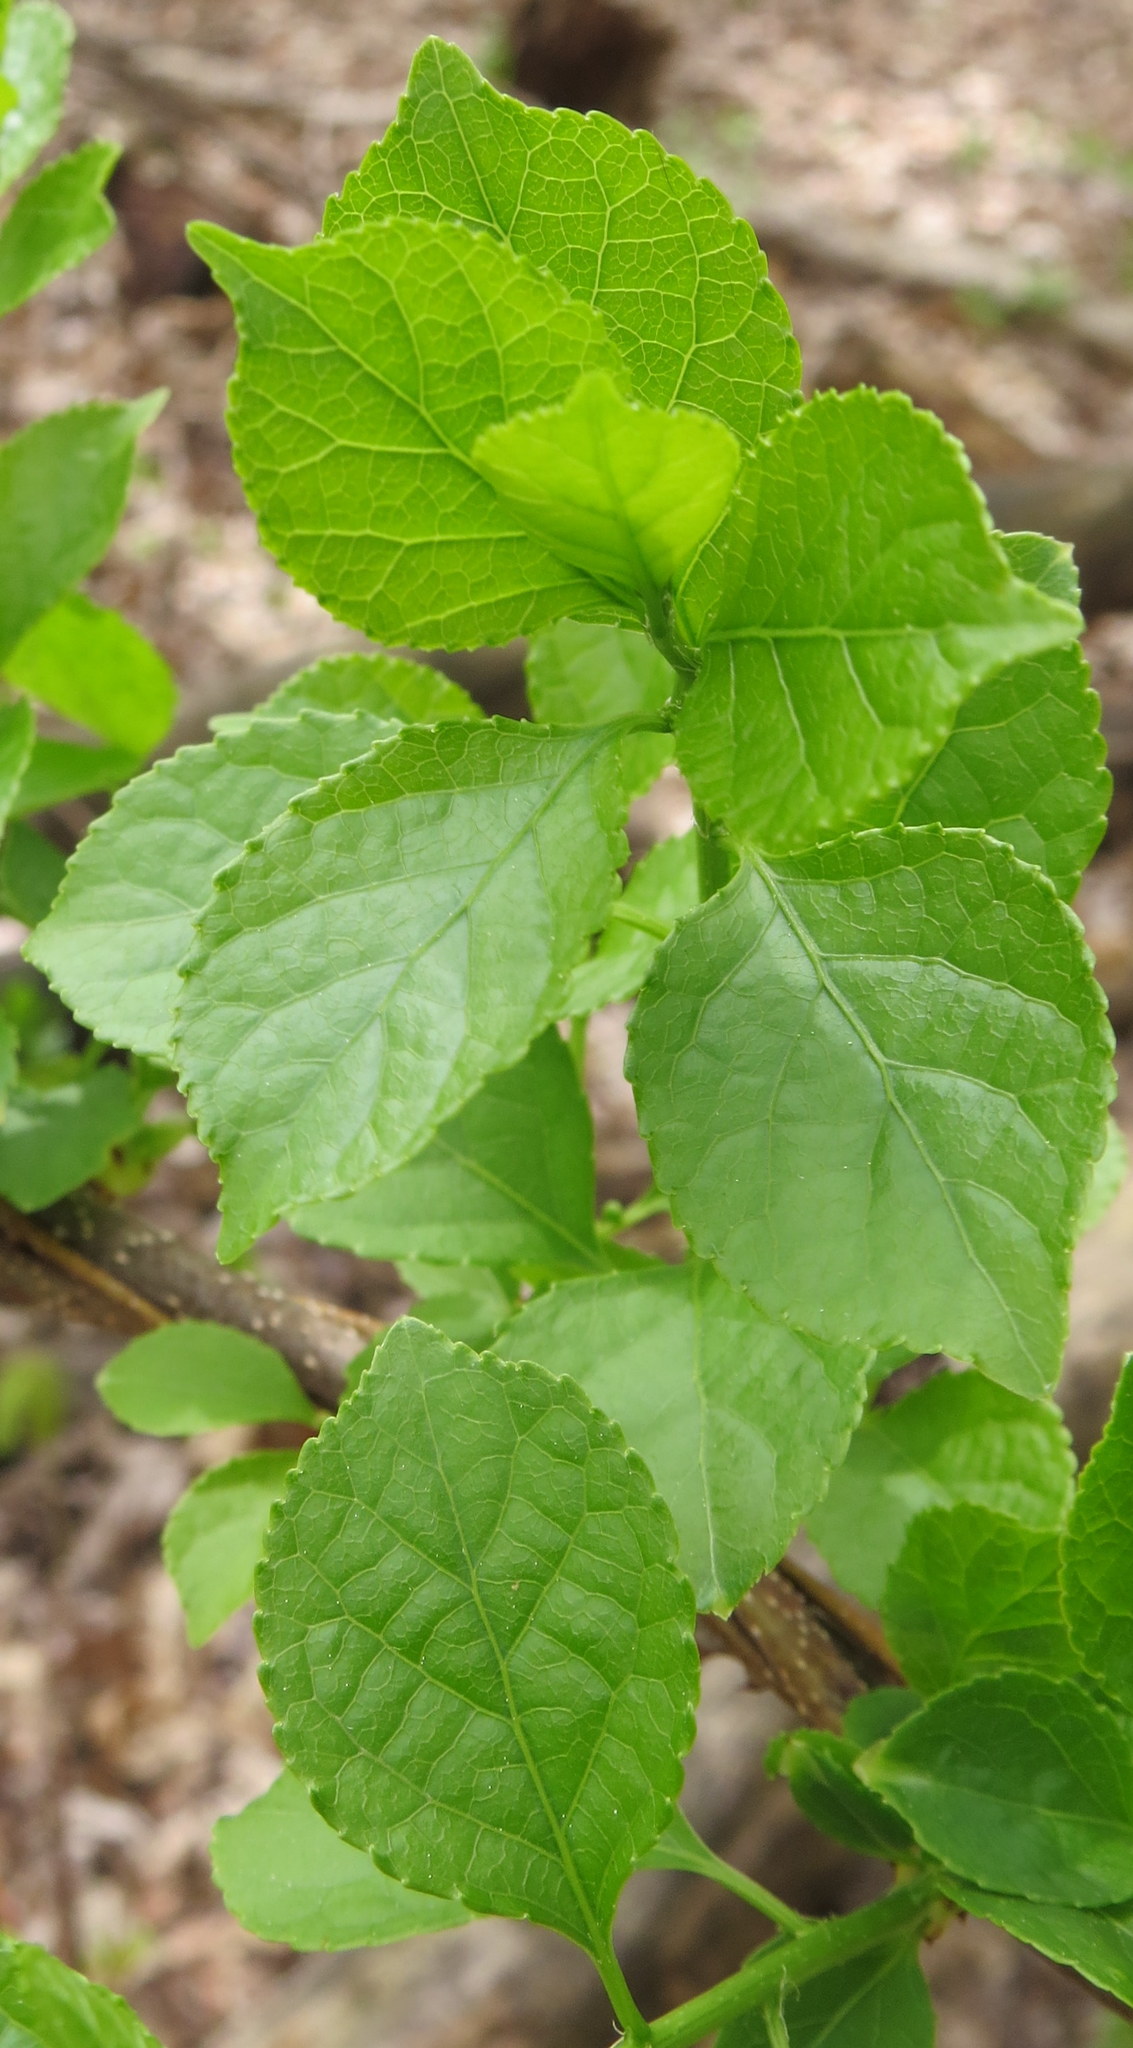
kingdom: Plantae
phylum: Tracheophyta
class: Magnoliopsida
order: Celastrales
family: Celastraceae
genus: Celastrus
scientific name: Celastrus orbiculatus
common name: Oriental bittersweet
